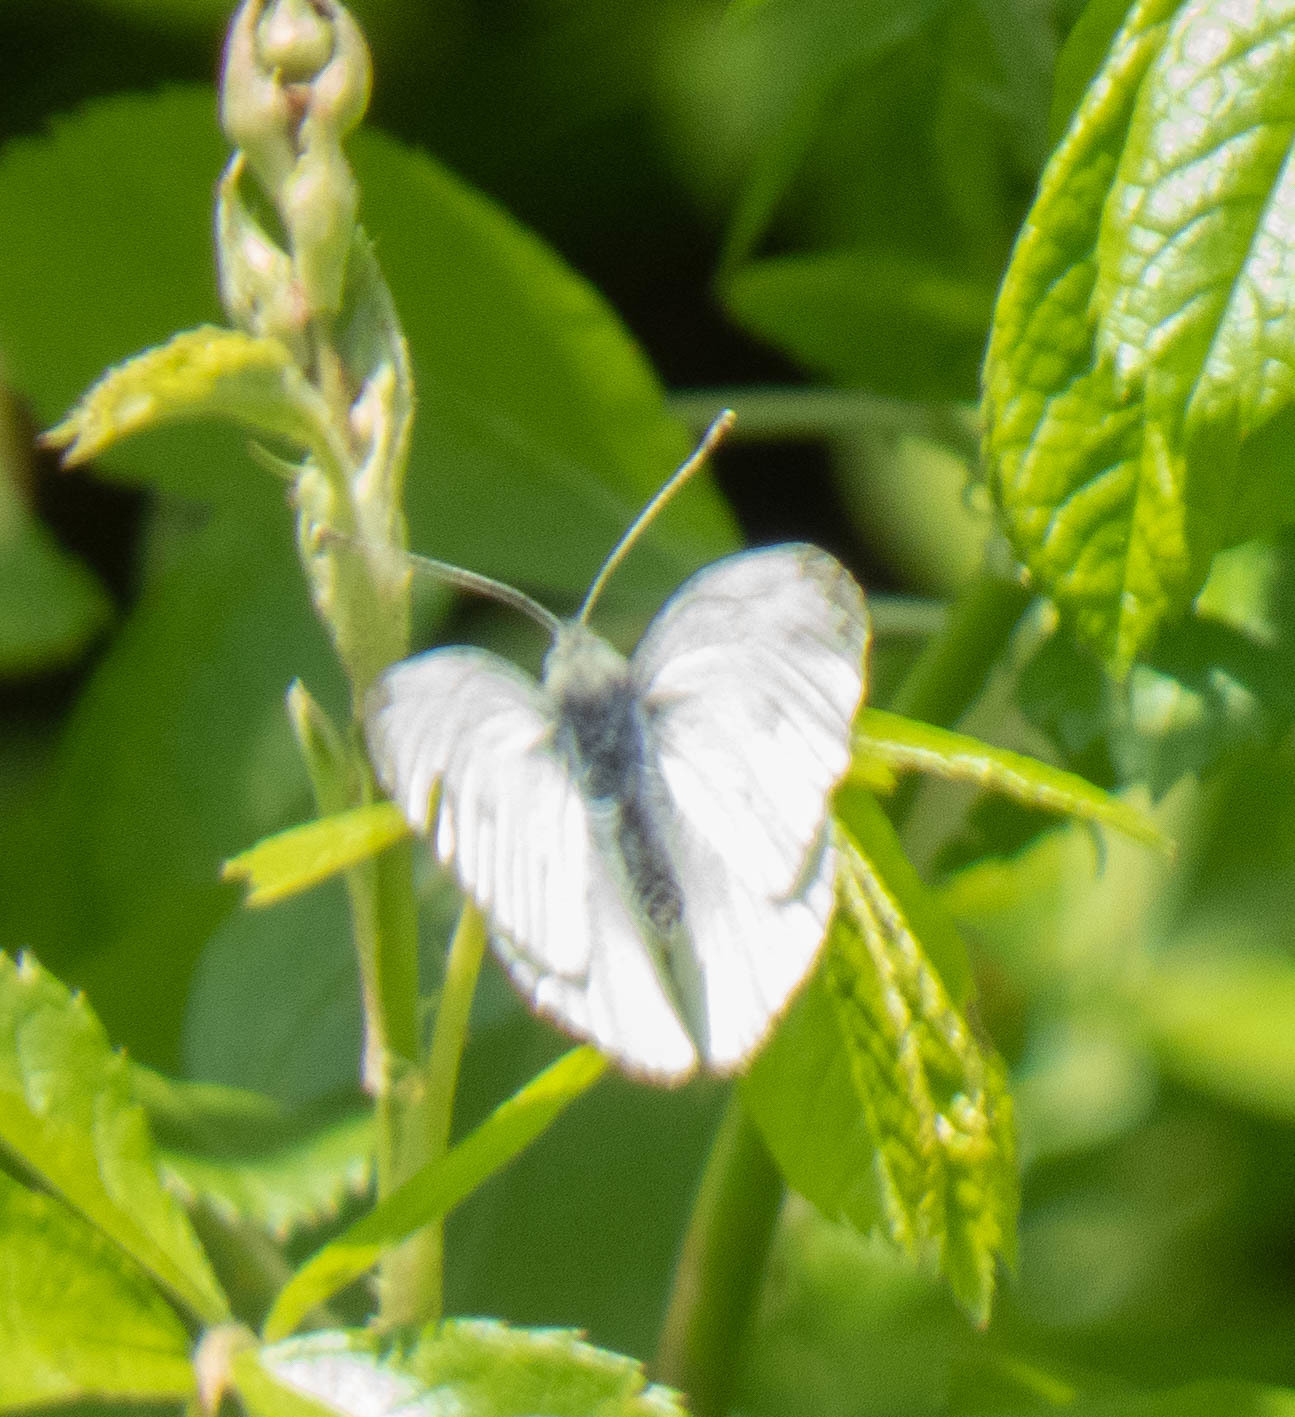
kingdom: Animalia
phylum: Arthropoda
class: Insecta
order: Lepidoptera
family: Pieridae
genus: Pieris
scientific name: Pieris rapae
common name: Small white
